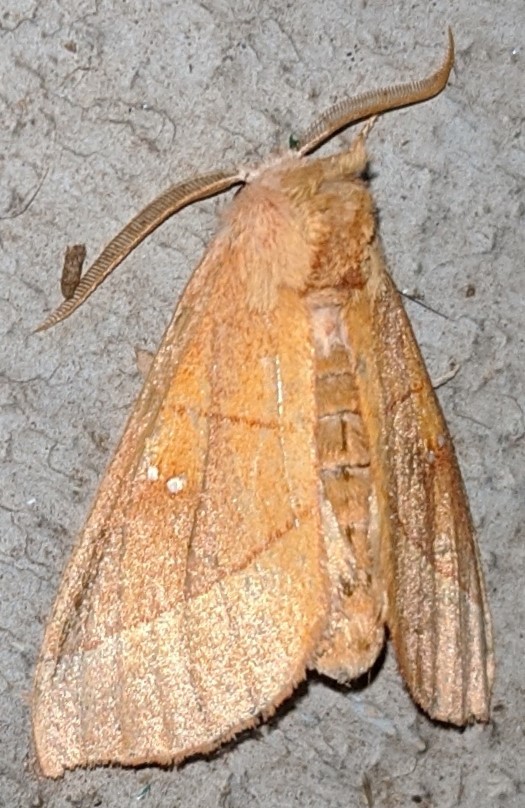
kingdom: Animalia
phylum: Arthropoda
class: Insecta
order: Lepidoptera
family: Notodontidae
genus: Nadata
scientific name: Nadata gibbosa
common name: White-dotted prominent
